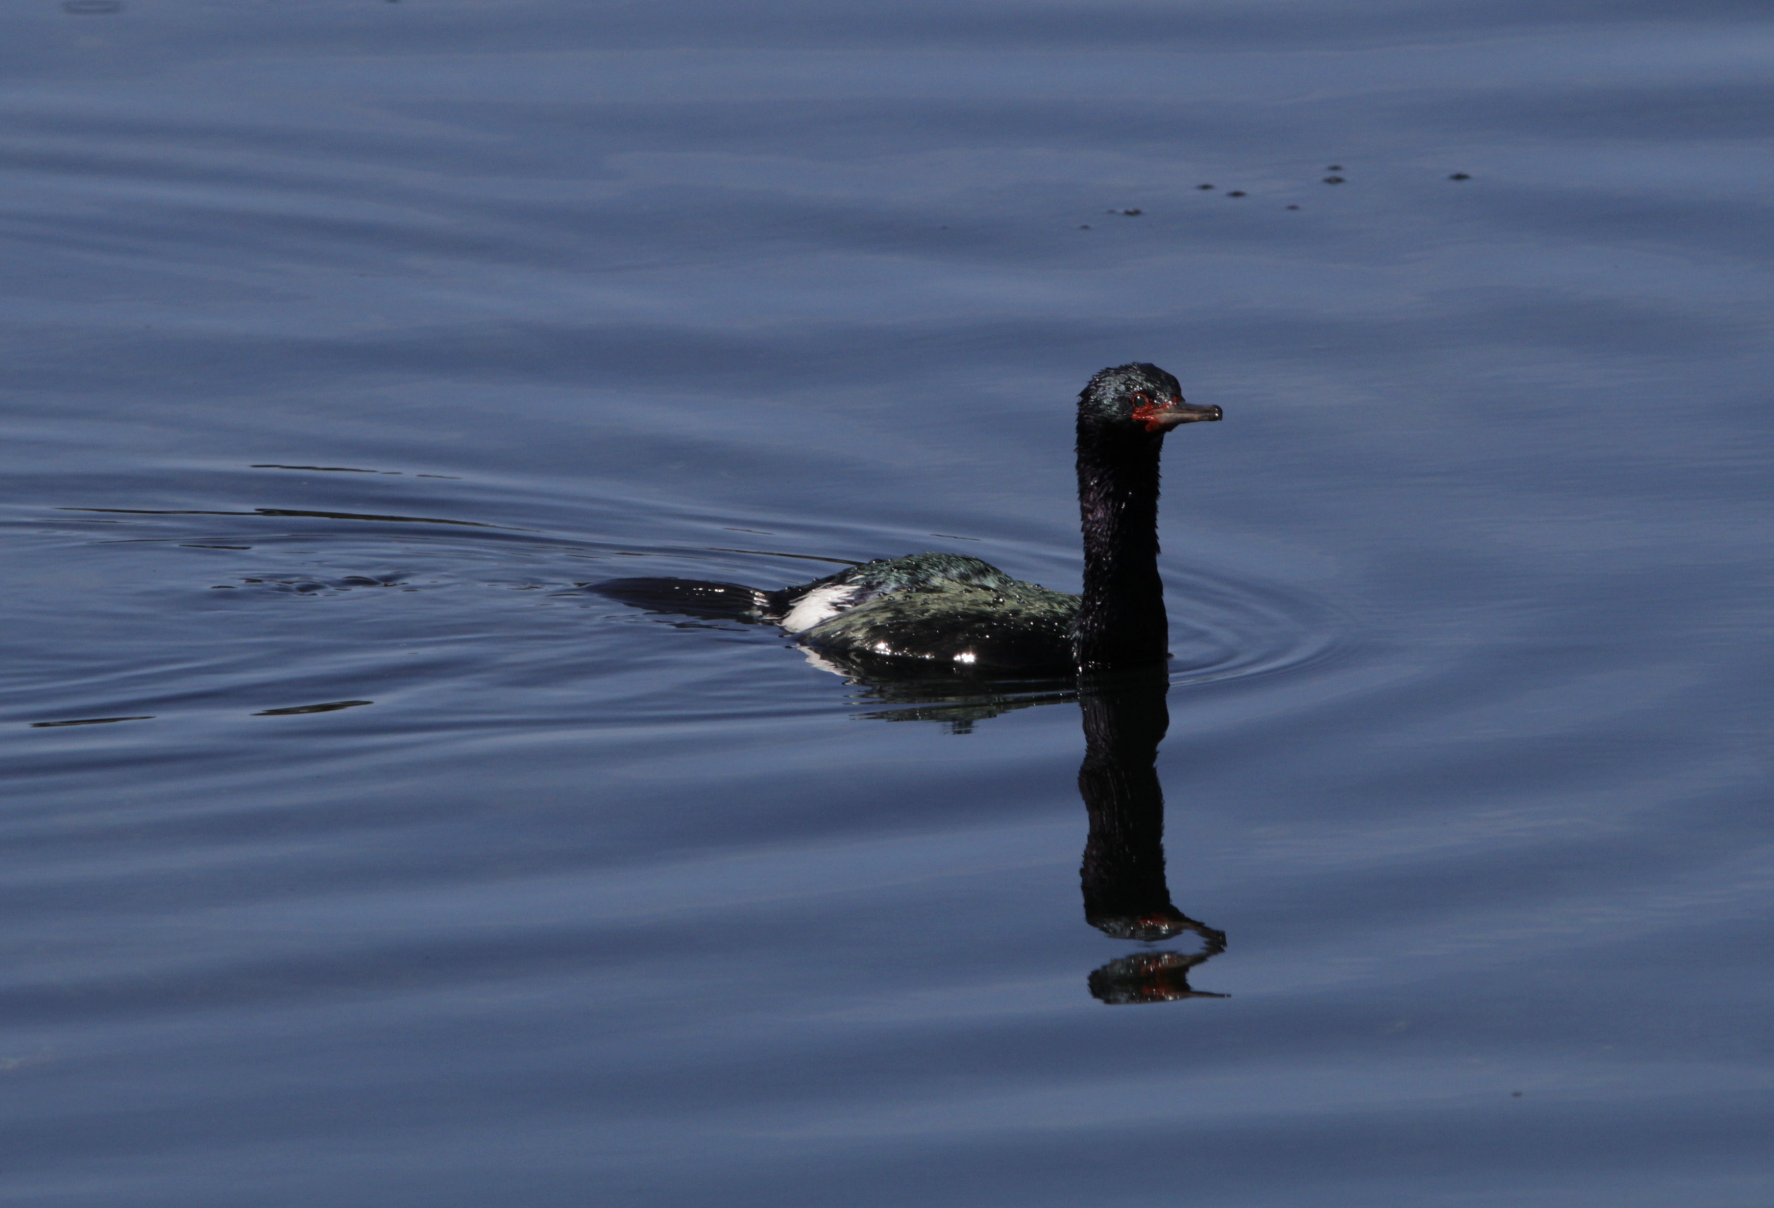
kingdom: Animalia
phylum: Chordata
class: Aves
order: Suliformes
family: Phalacrocoracidae
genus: Phalacrocorax
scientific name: Phalacrocorax pelagicus
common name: Pelagic cormorant
